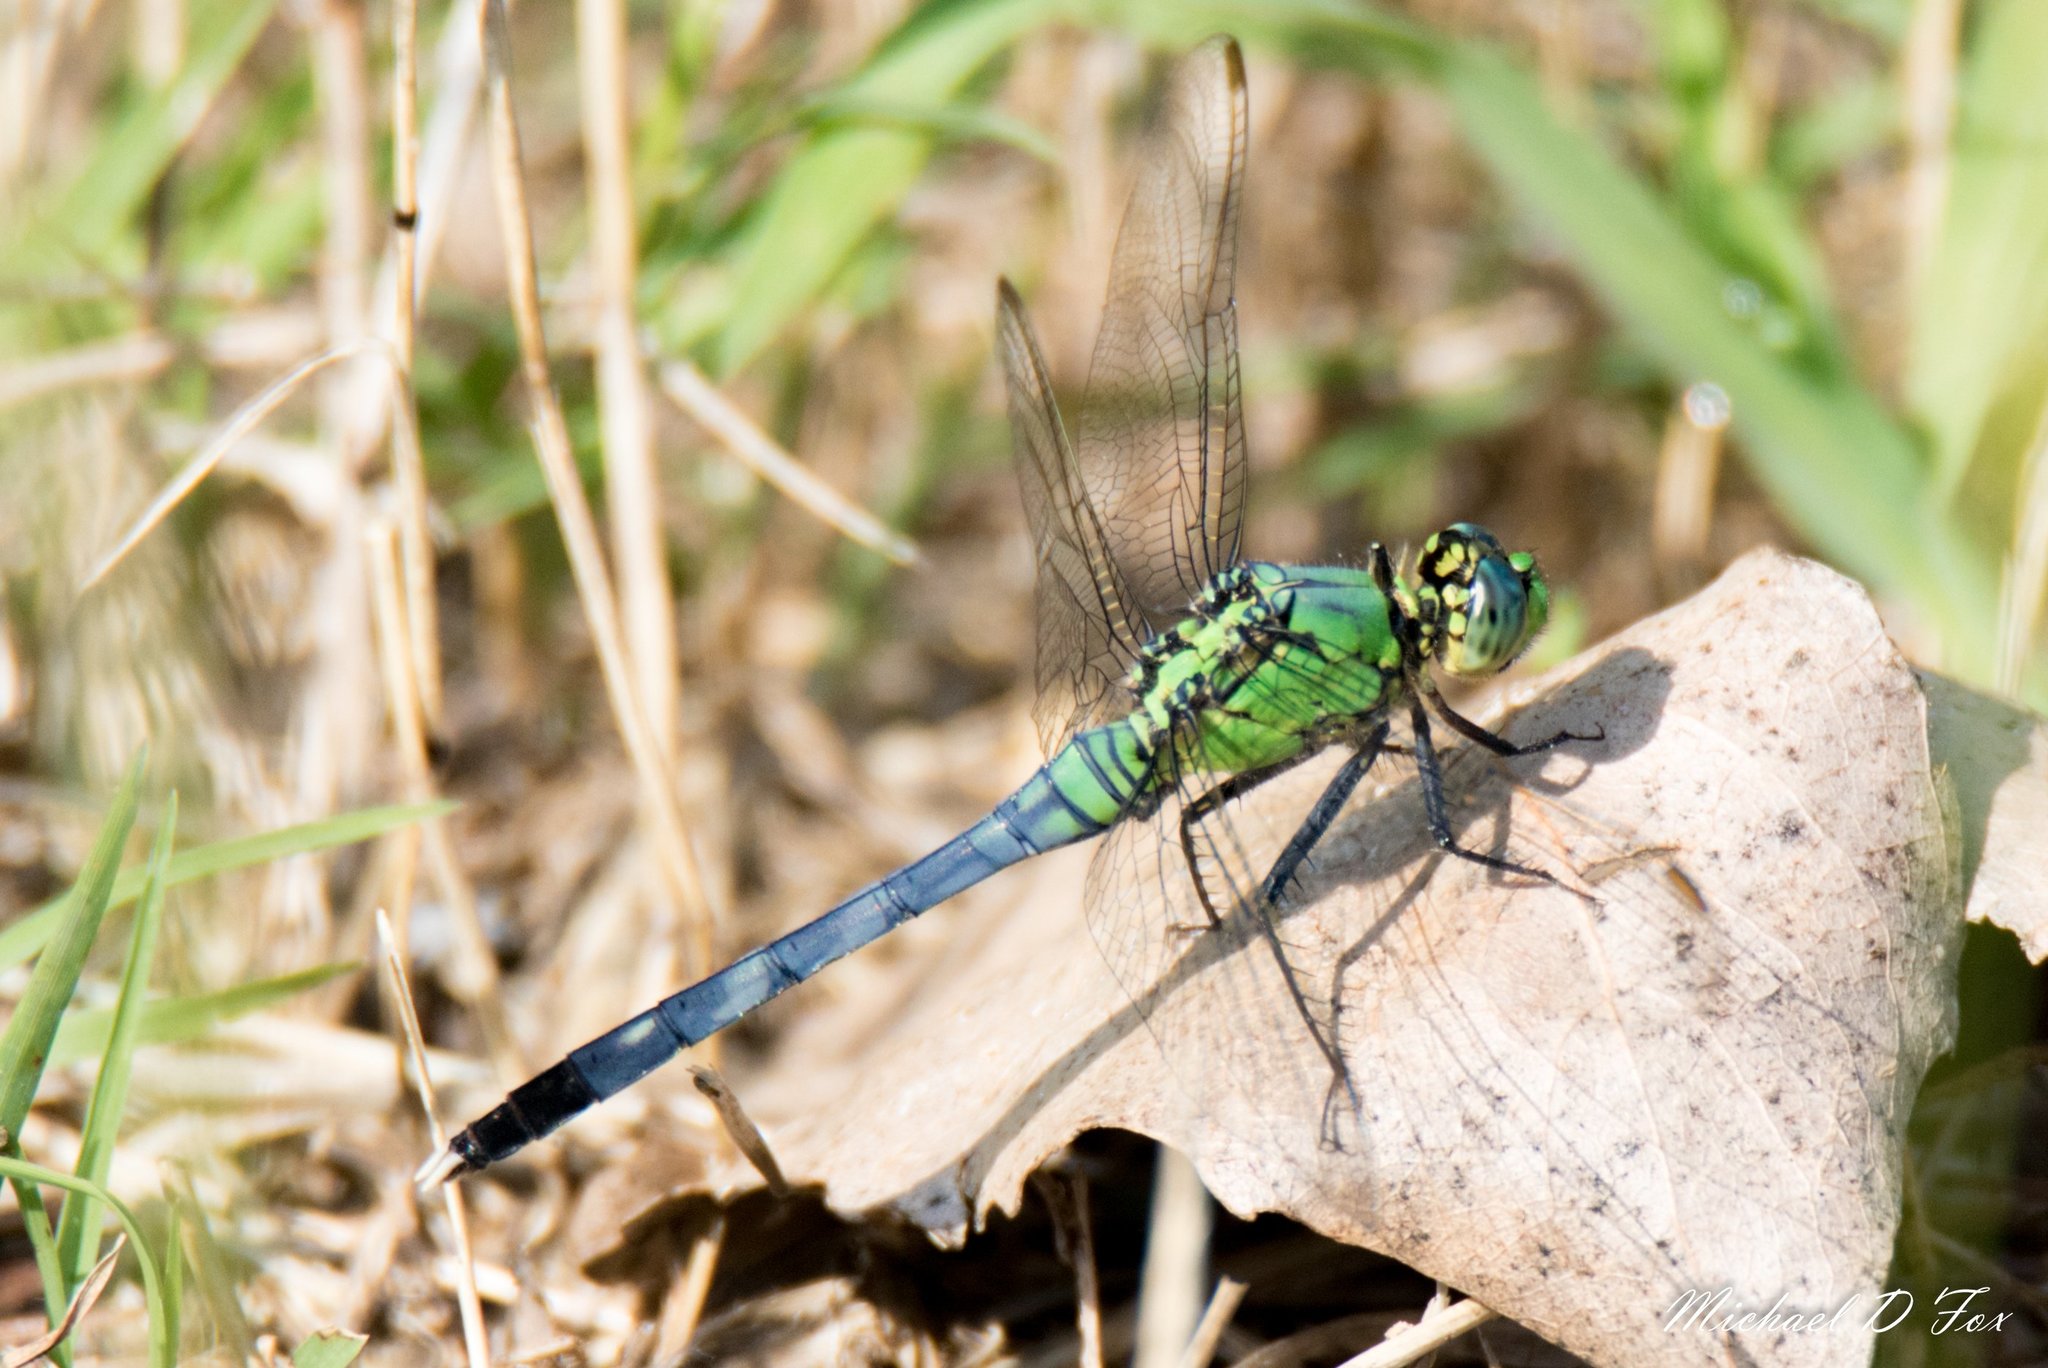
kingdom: Animalia
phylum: Arthropoda
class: Insecta
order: Odonata
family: Libellulidae
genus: Erythemis
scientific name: Erythemis simplicicollis
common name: Eastern pondhawk
